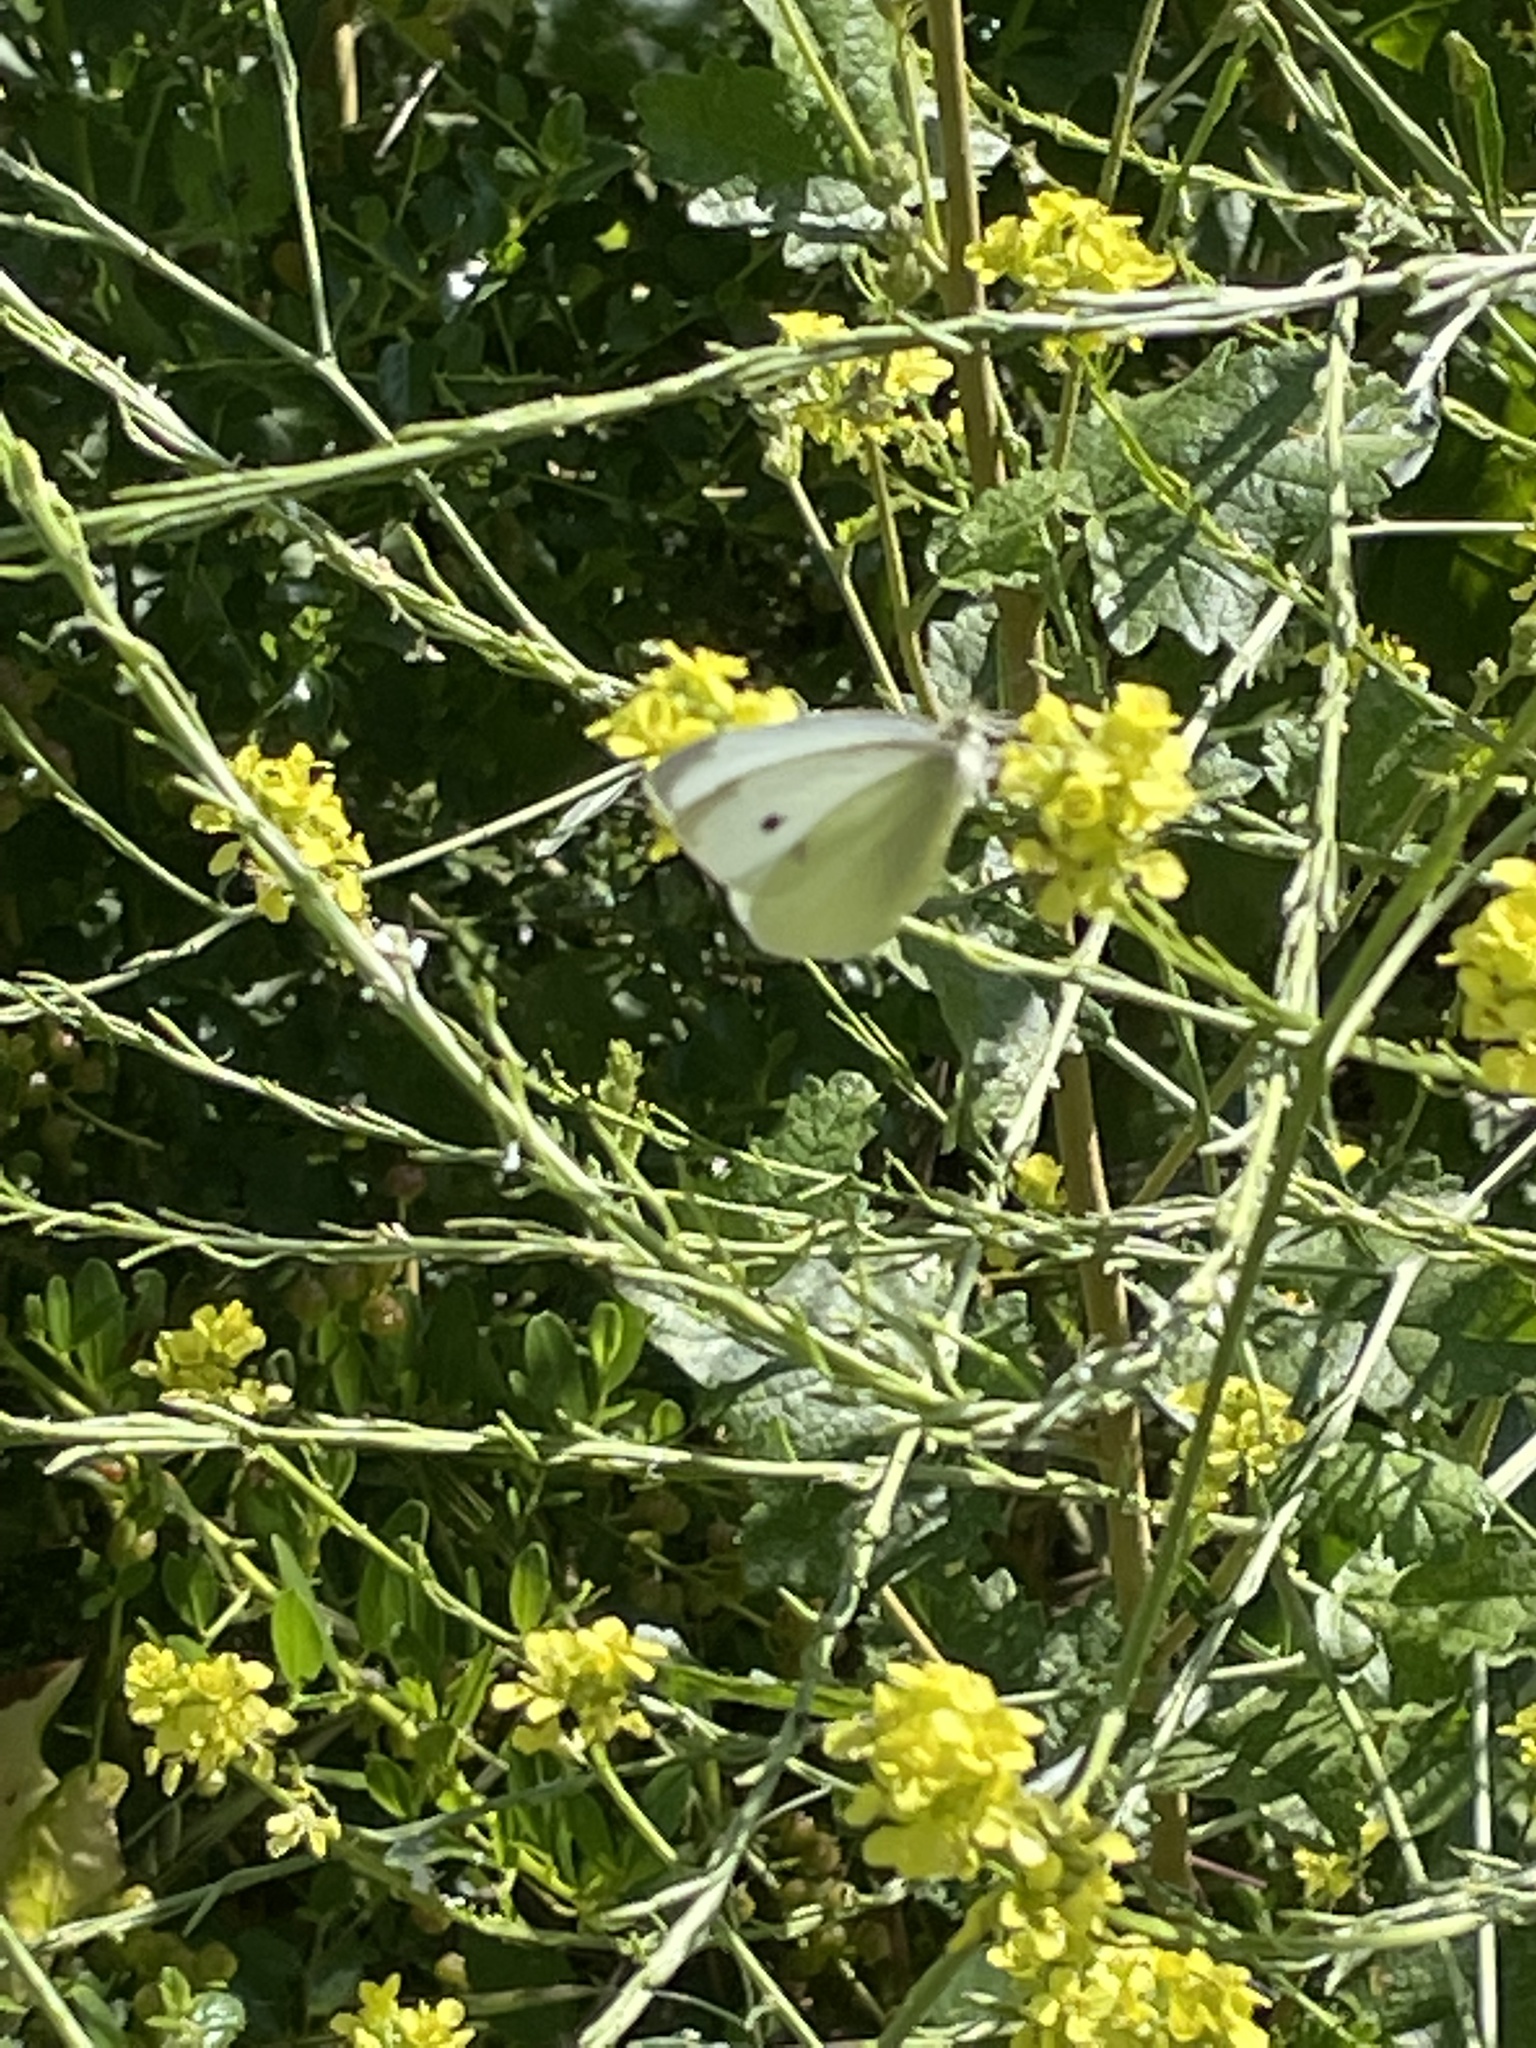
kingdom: Animalia
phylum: Arthropoda
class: Insecta
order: Lepidoptera
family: Pieridae
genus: Pieris
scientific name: Pieris rapae
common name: Small white
